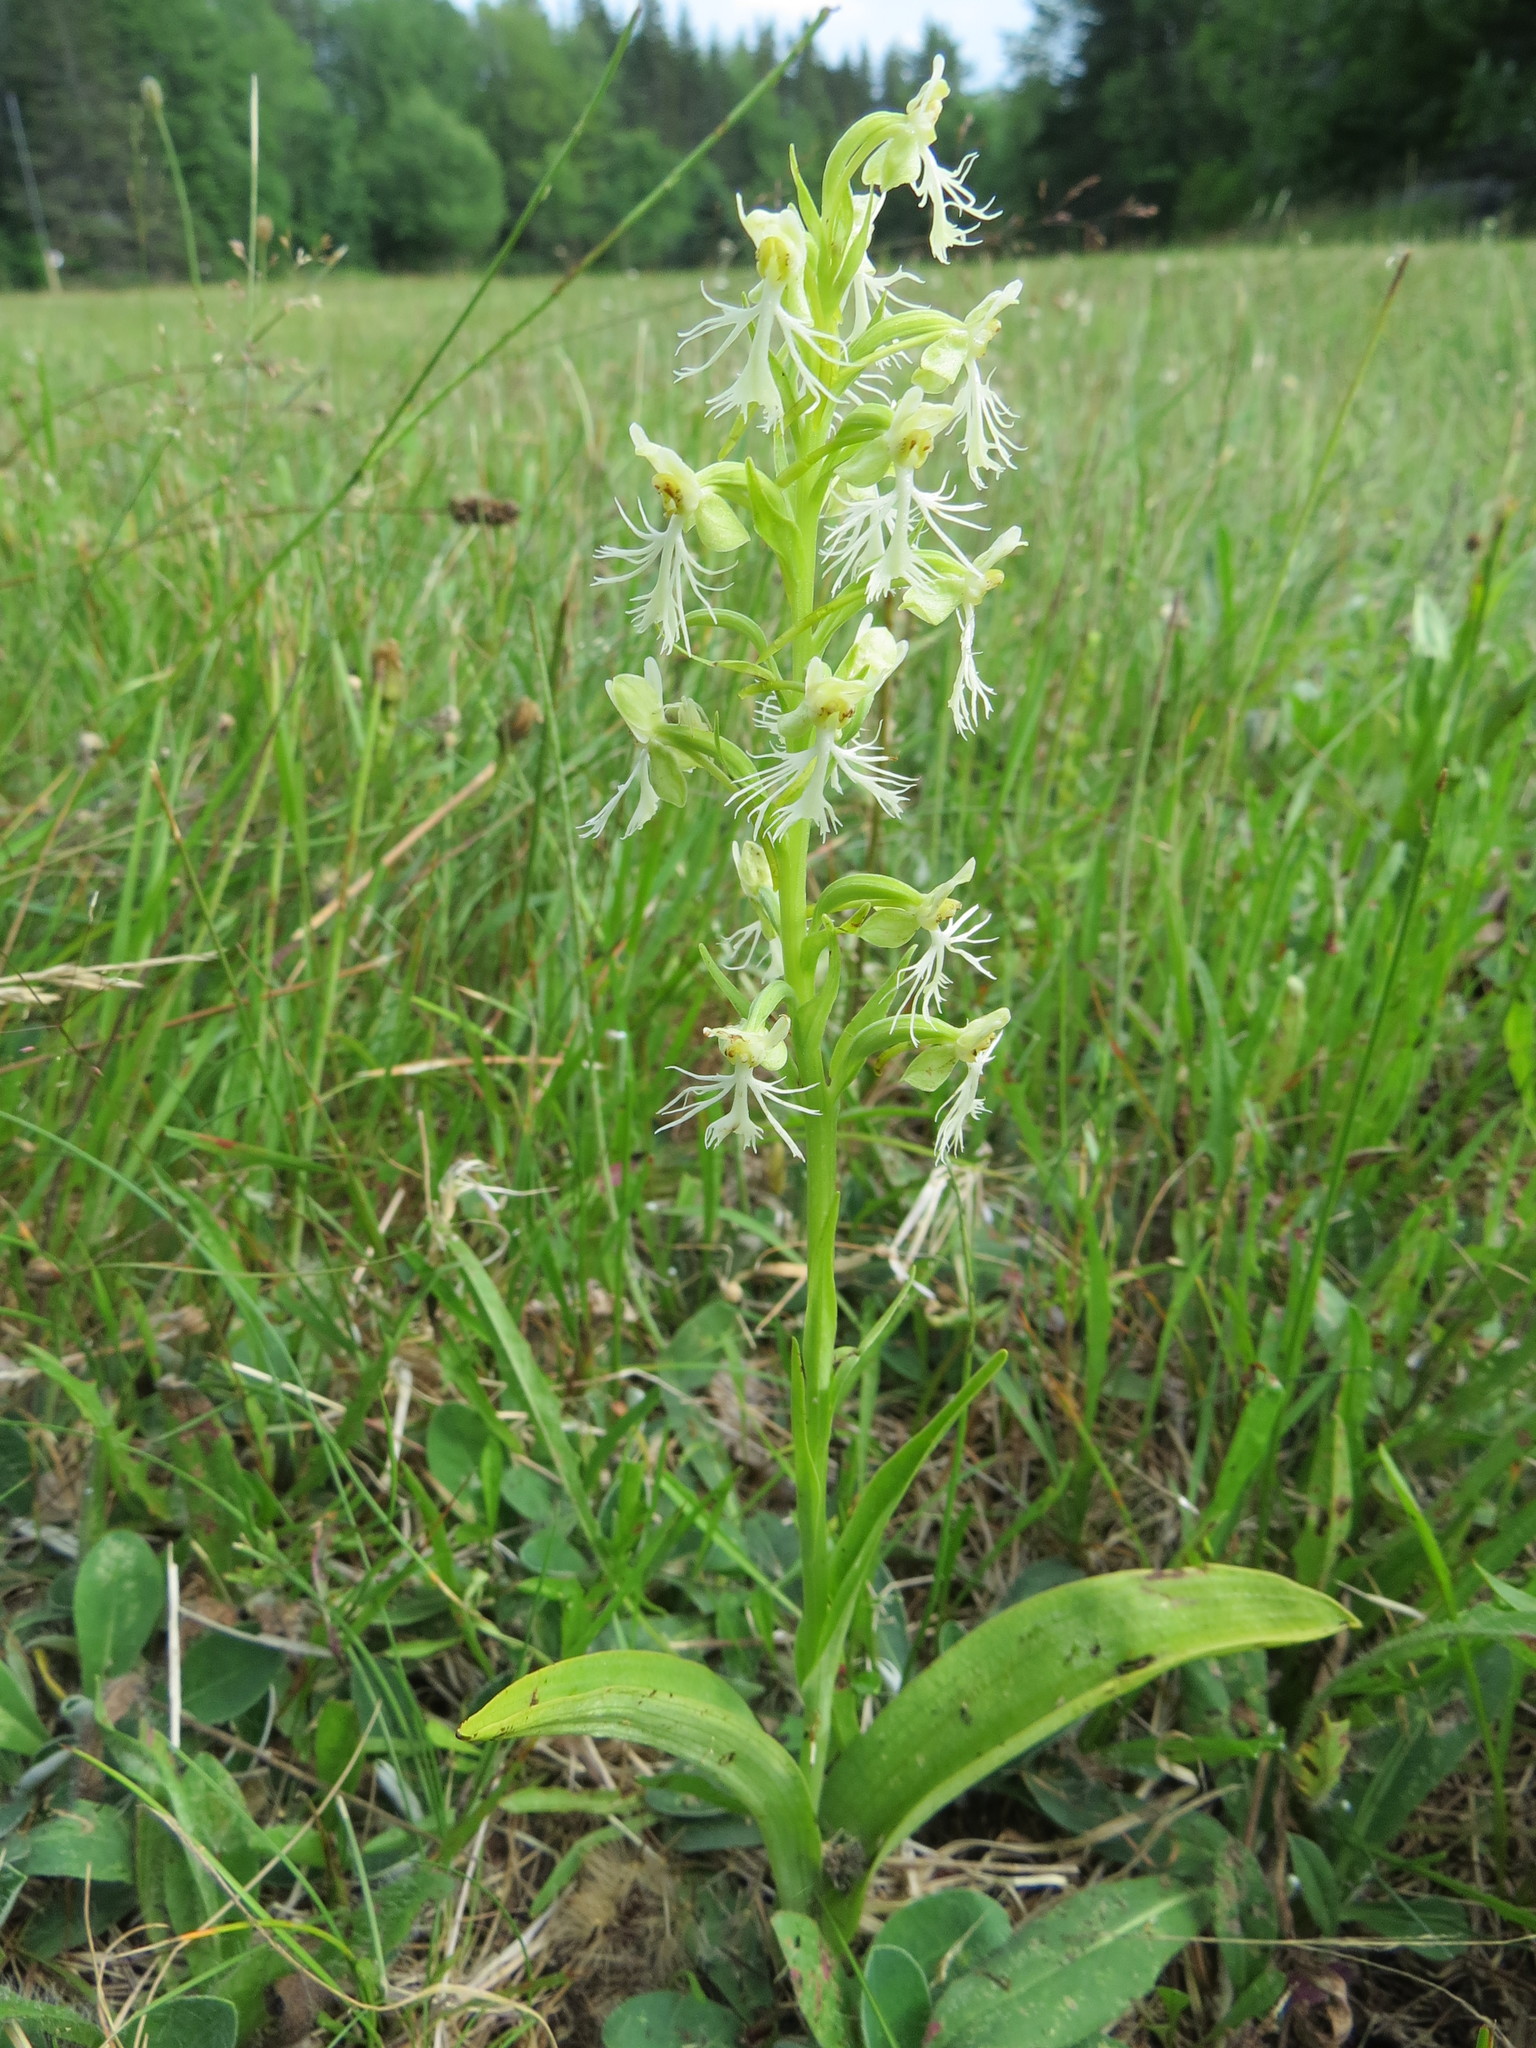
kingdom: Plantae
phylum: Tracheophyta
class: Liliopsida
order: Asparagales
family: Orchidaceae
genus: Platanthera
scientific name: Platanthera lacera
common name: Green fringed orchid
